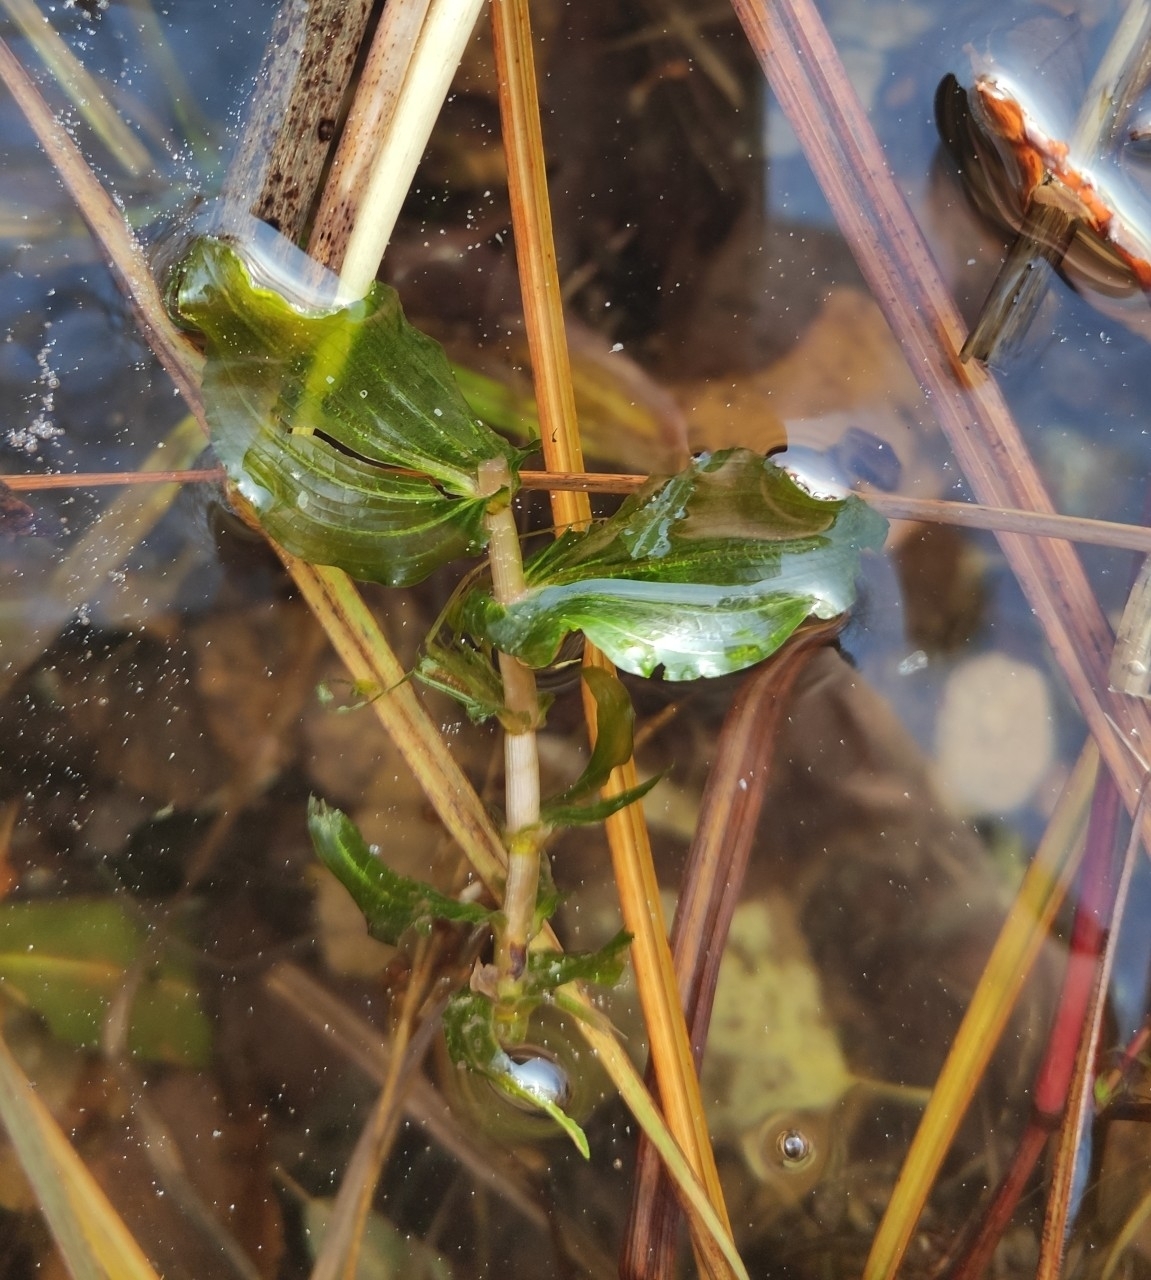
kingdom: Plantae
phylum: Tracheophyta
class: Liliopsida
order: Alismatales
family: Potamogetonaceae
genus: Potamogeton
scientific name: Potamogeton perfoliatus
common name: Perfoliate pondweed
